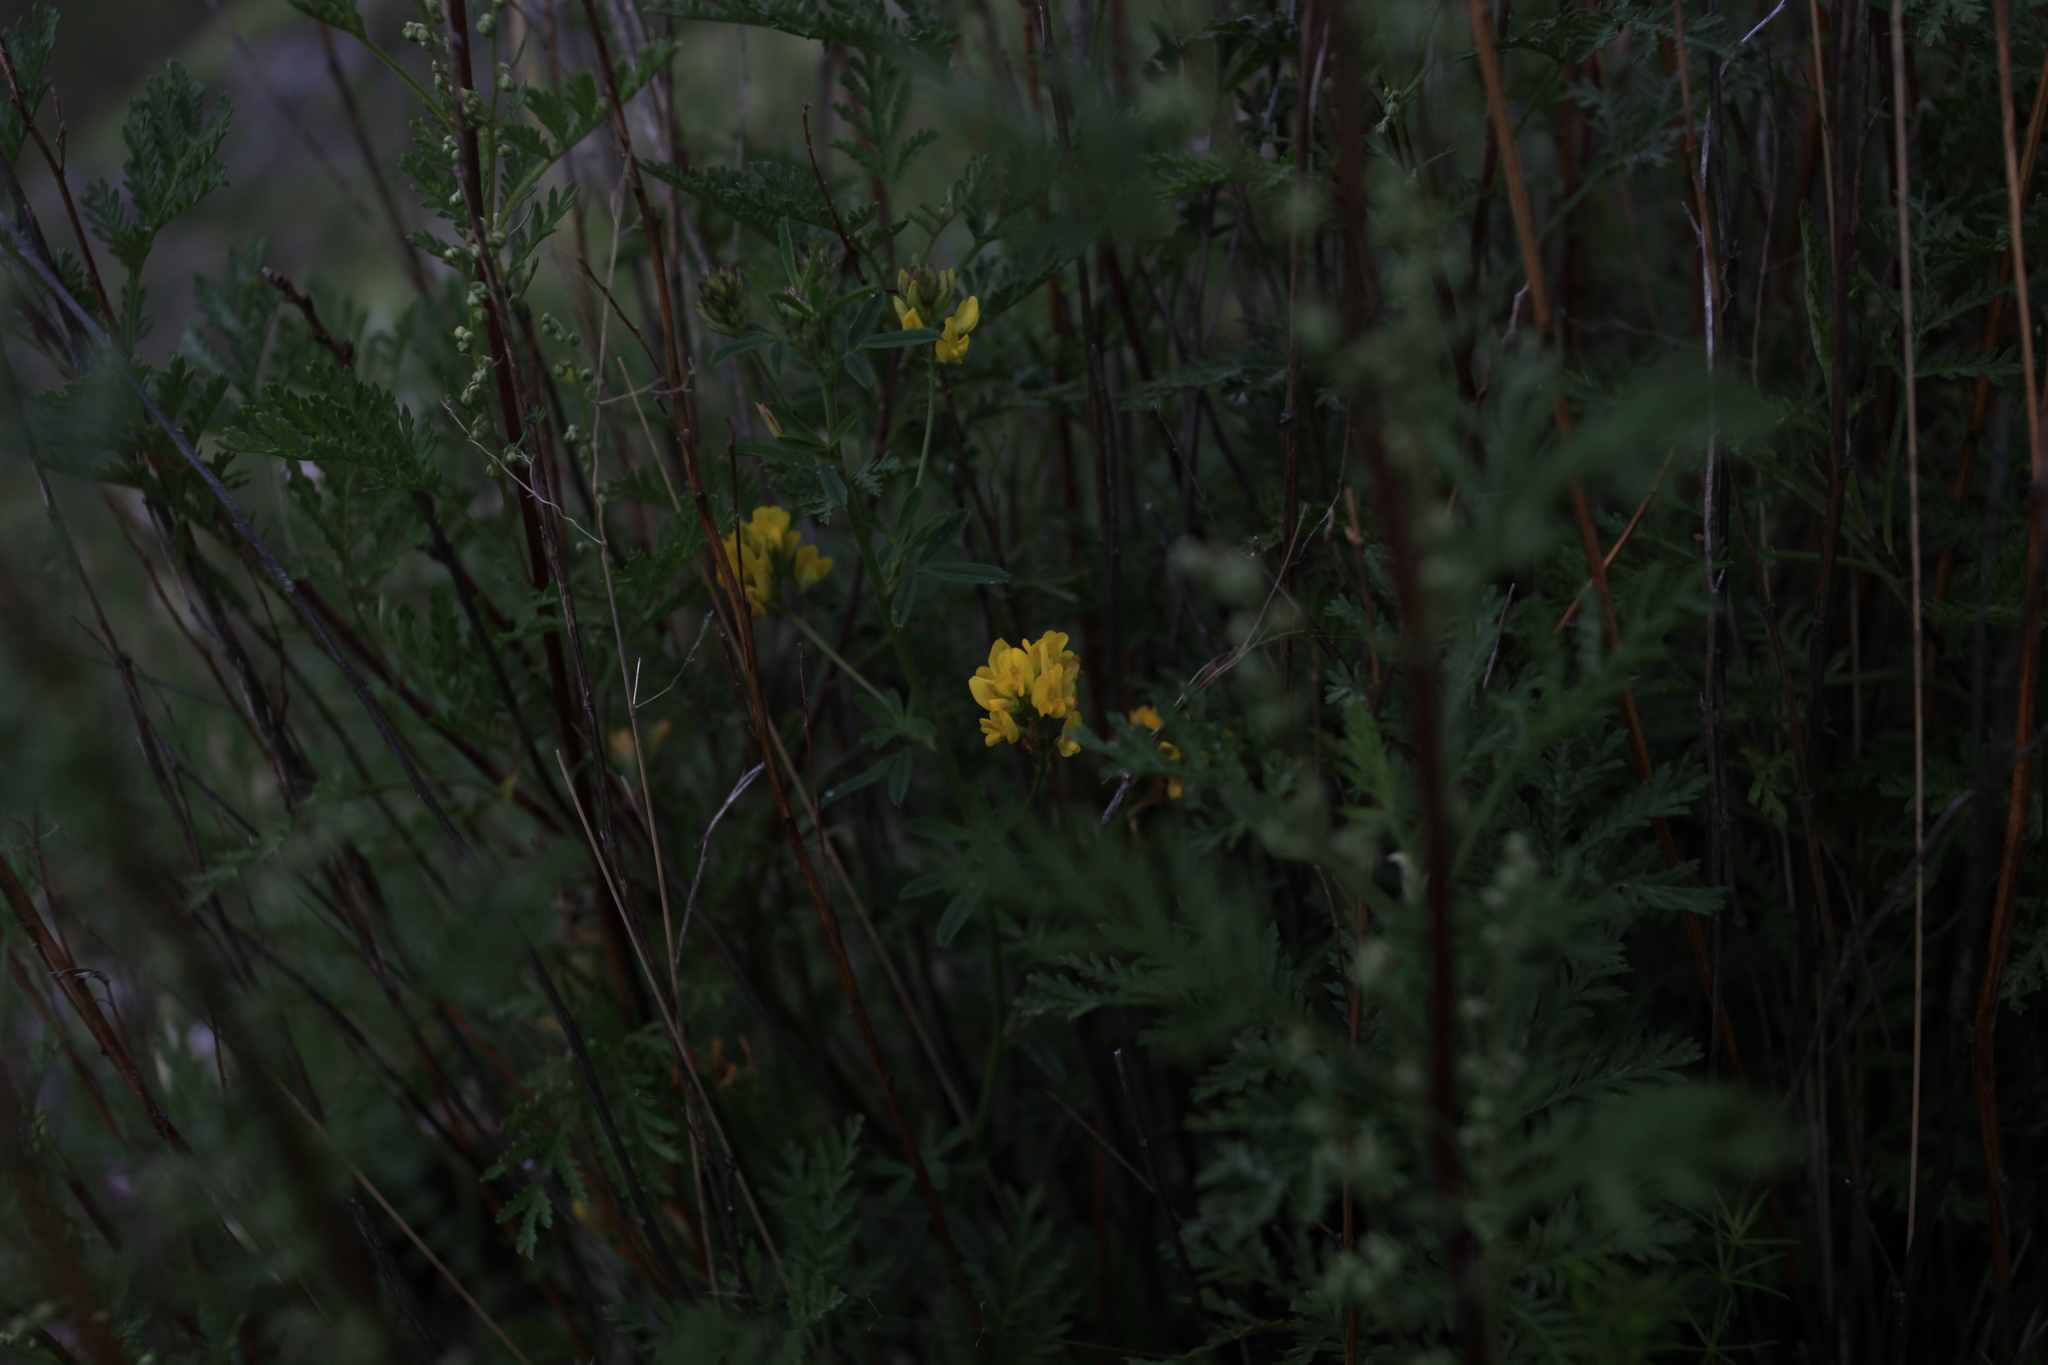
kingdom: Plantae
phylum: Tracheophyta
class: Magnoliopsida
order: Fabales
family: Fabaceae
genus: Medicago
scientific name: Medicago falcata
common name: Sickle medick
